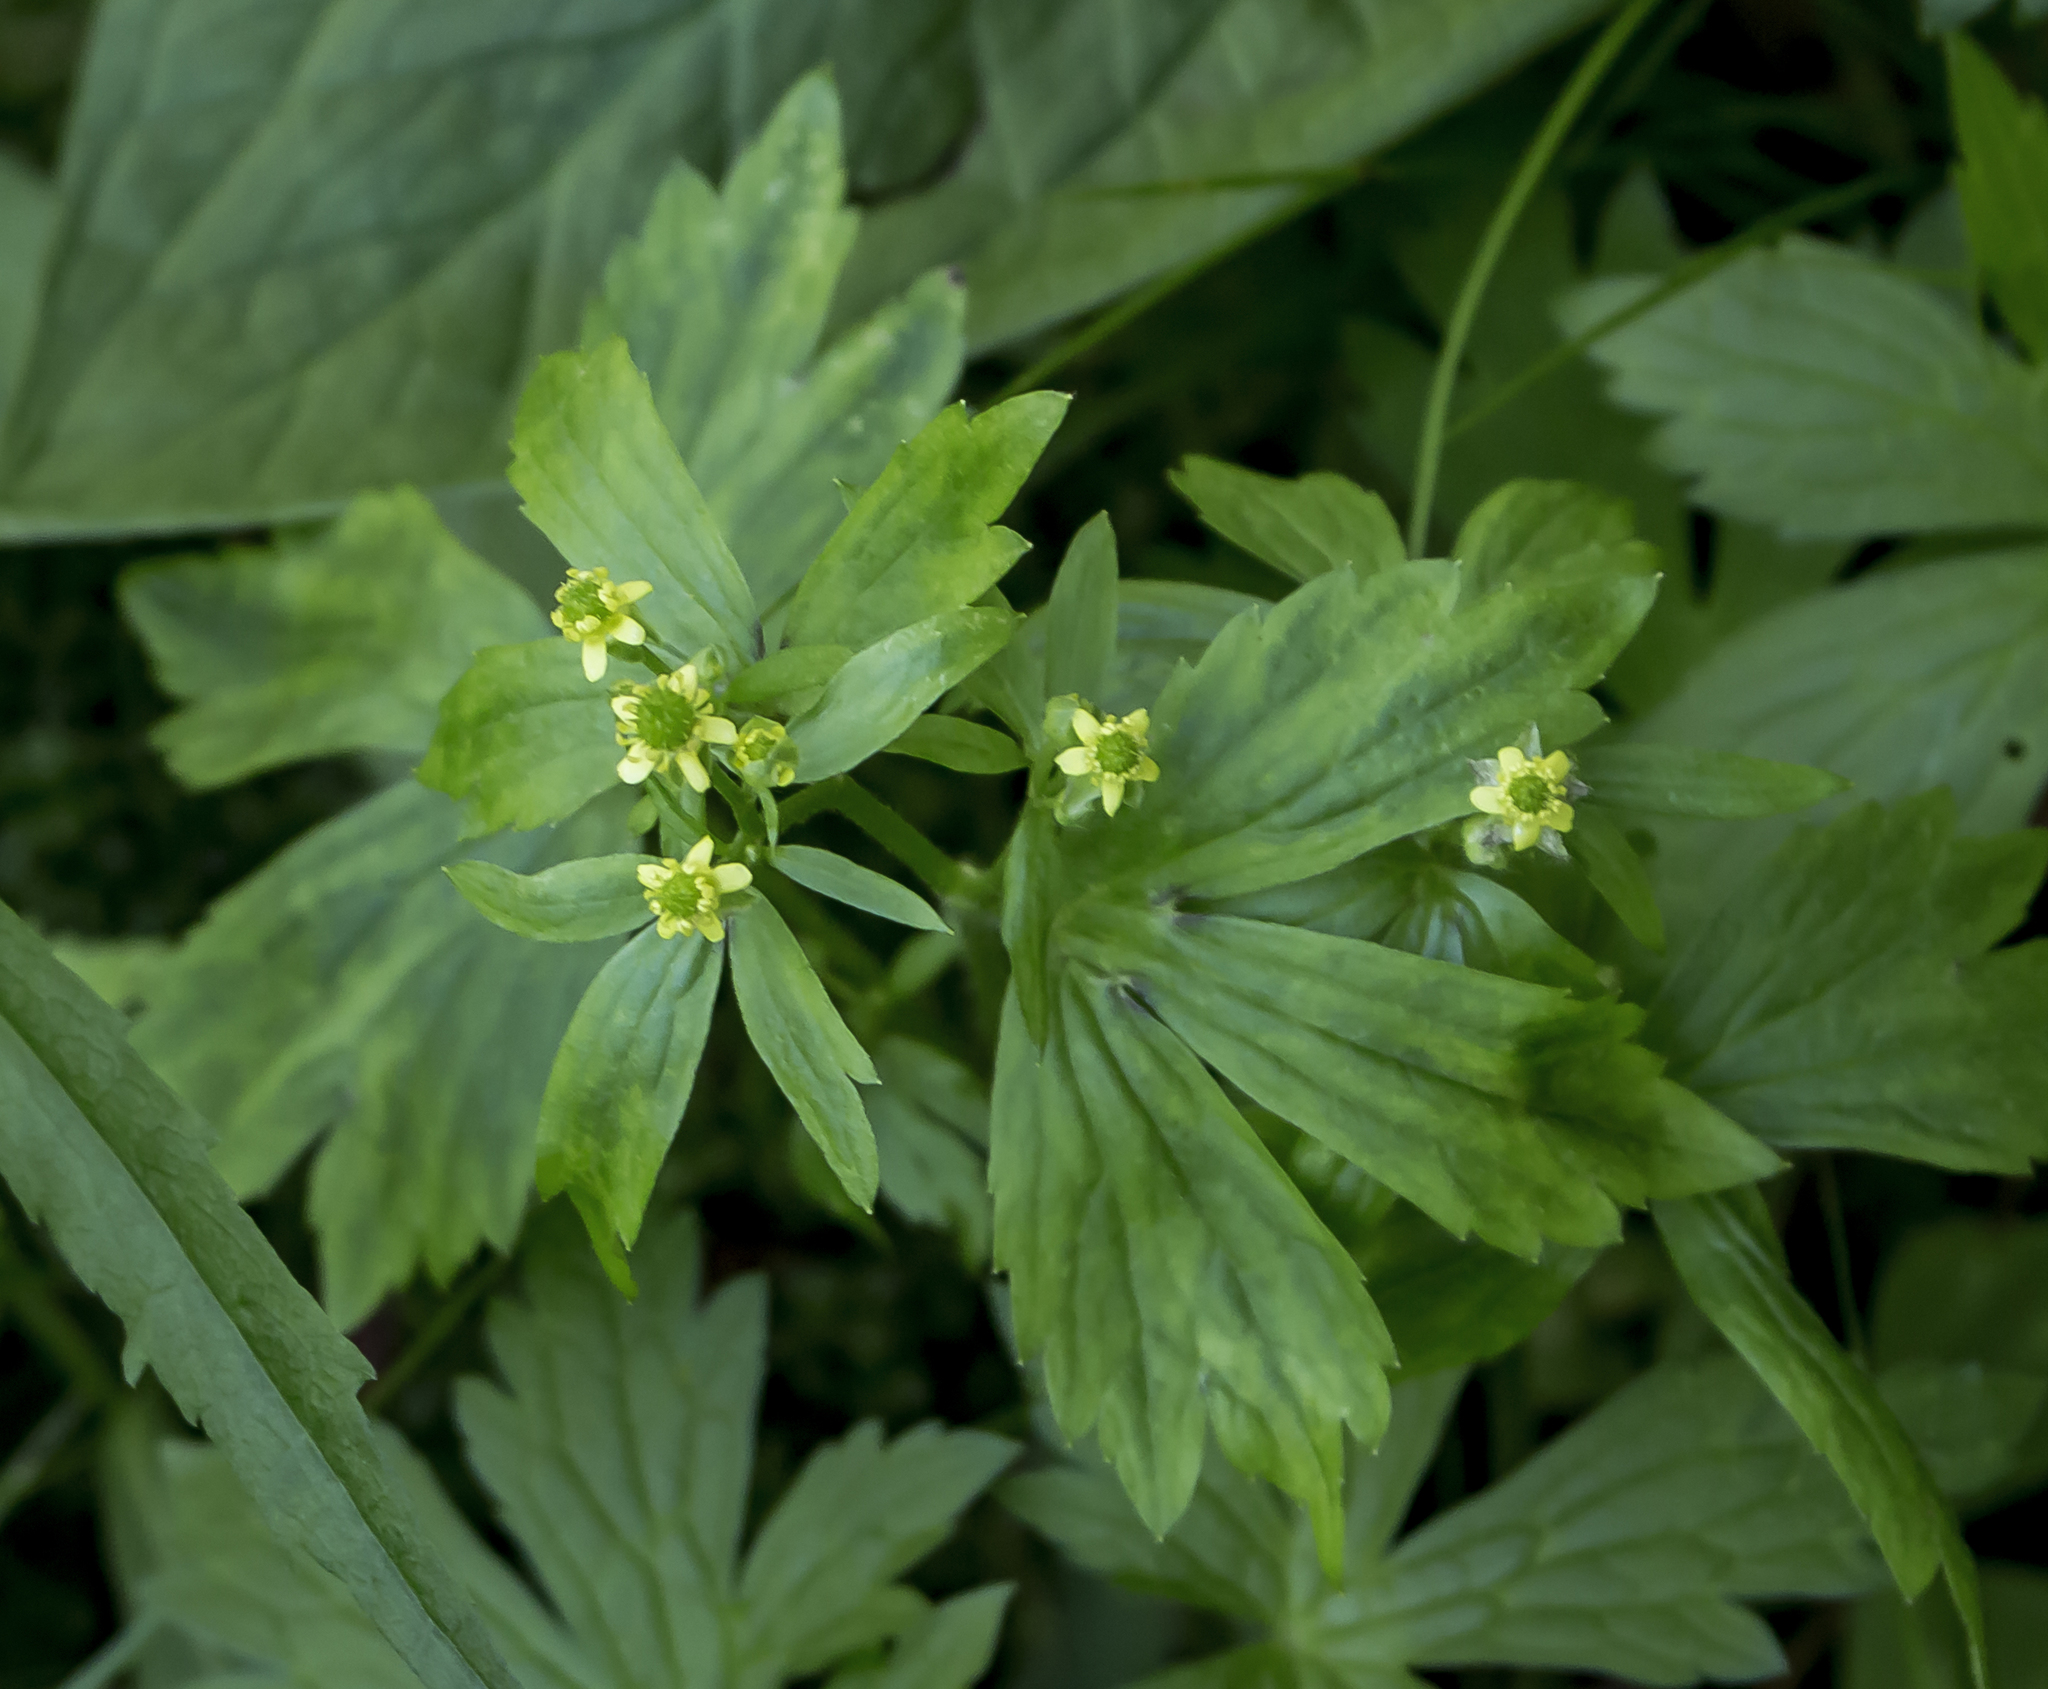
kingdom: Plantae
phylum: Tracheophyta
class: Magnoliopsida
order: Ranunculales
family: Ranunculaceae
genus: Ranunculus
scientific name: Ranunculus recurvatus
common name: Blisterwort
